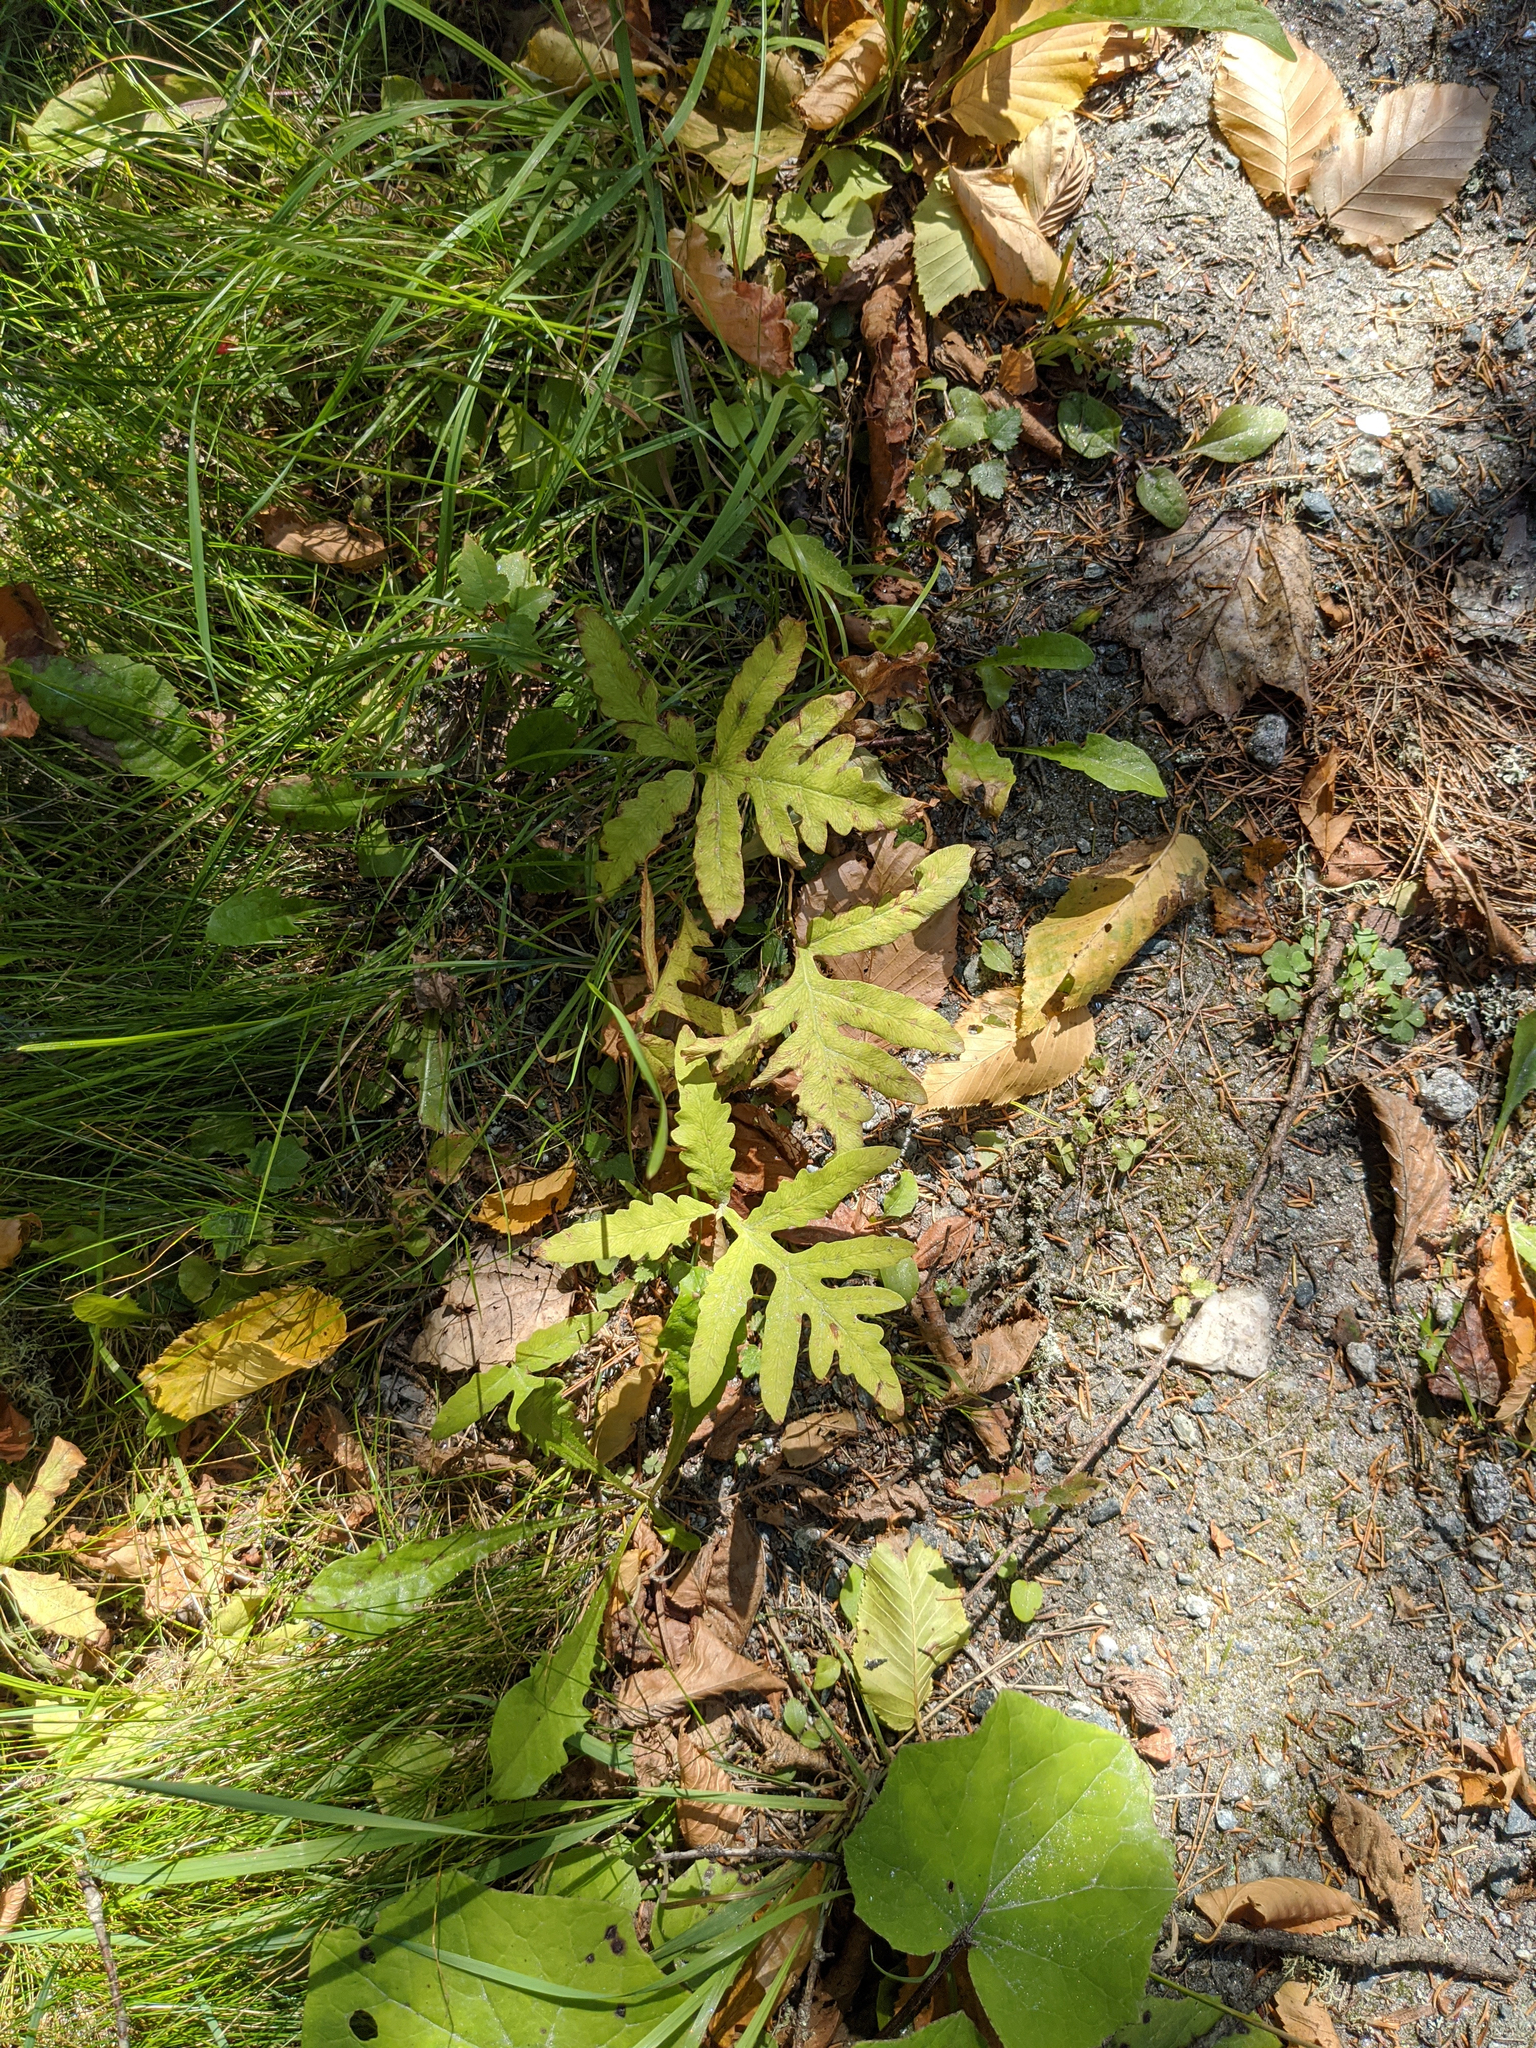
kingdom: Plantae
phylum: Tracheophyta
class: Polypodiopsida
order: Polypodiales
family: Onocleaceae
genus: Onoclea
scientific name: Onoclea sensibilis
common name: Sensitive fern
